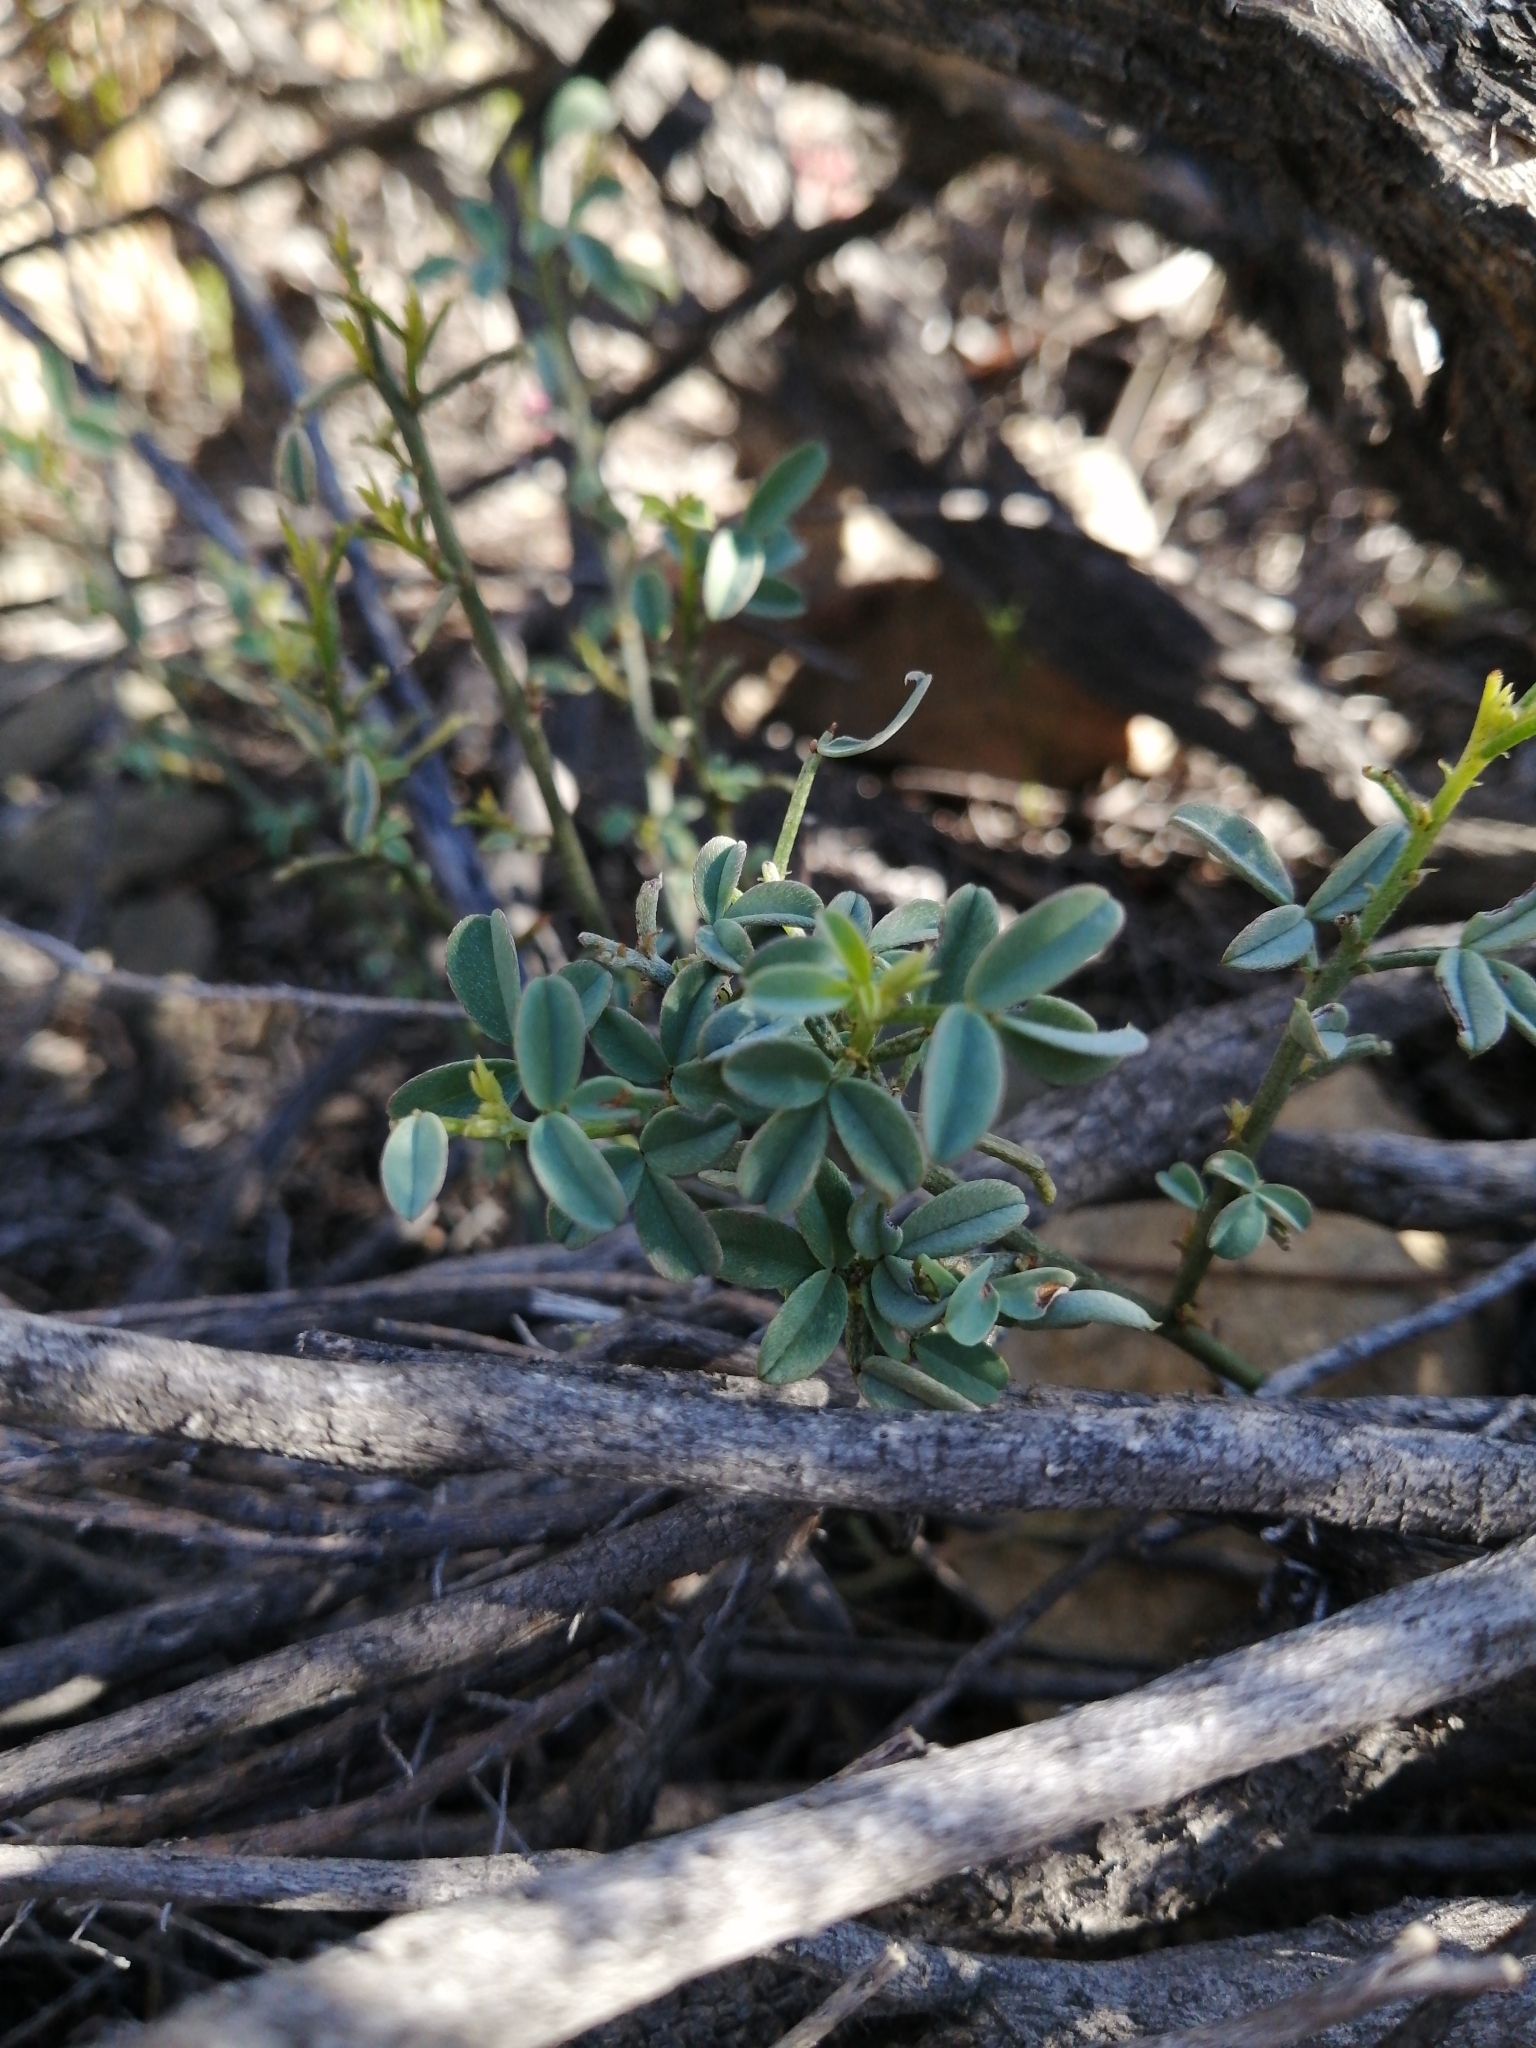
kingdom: Plantae
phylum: Tracheophyta
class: Magnoliopsida
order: Fabales
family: Fabaceae
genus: Indigofera
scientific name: Indigofera heterophylla
